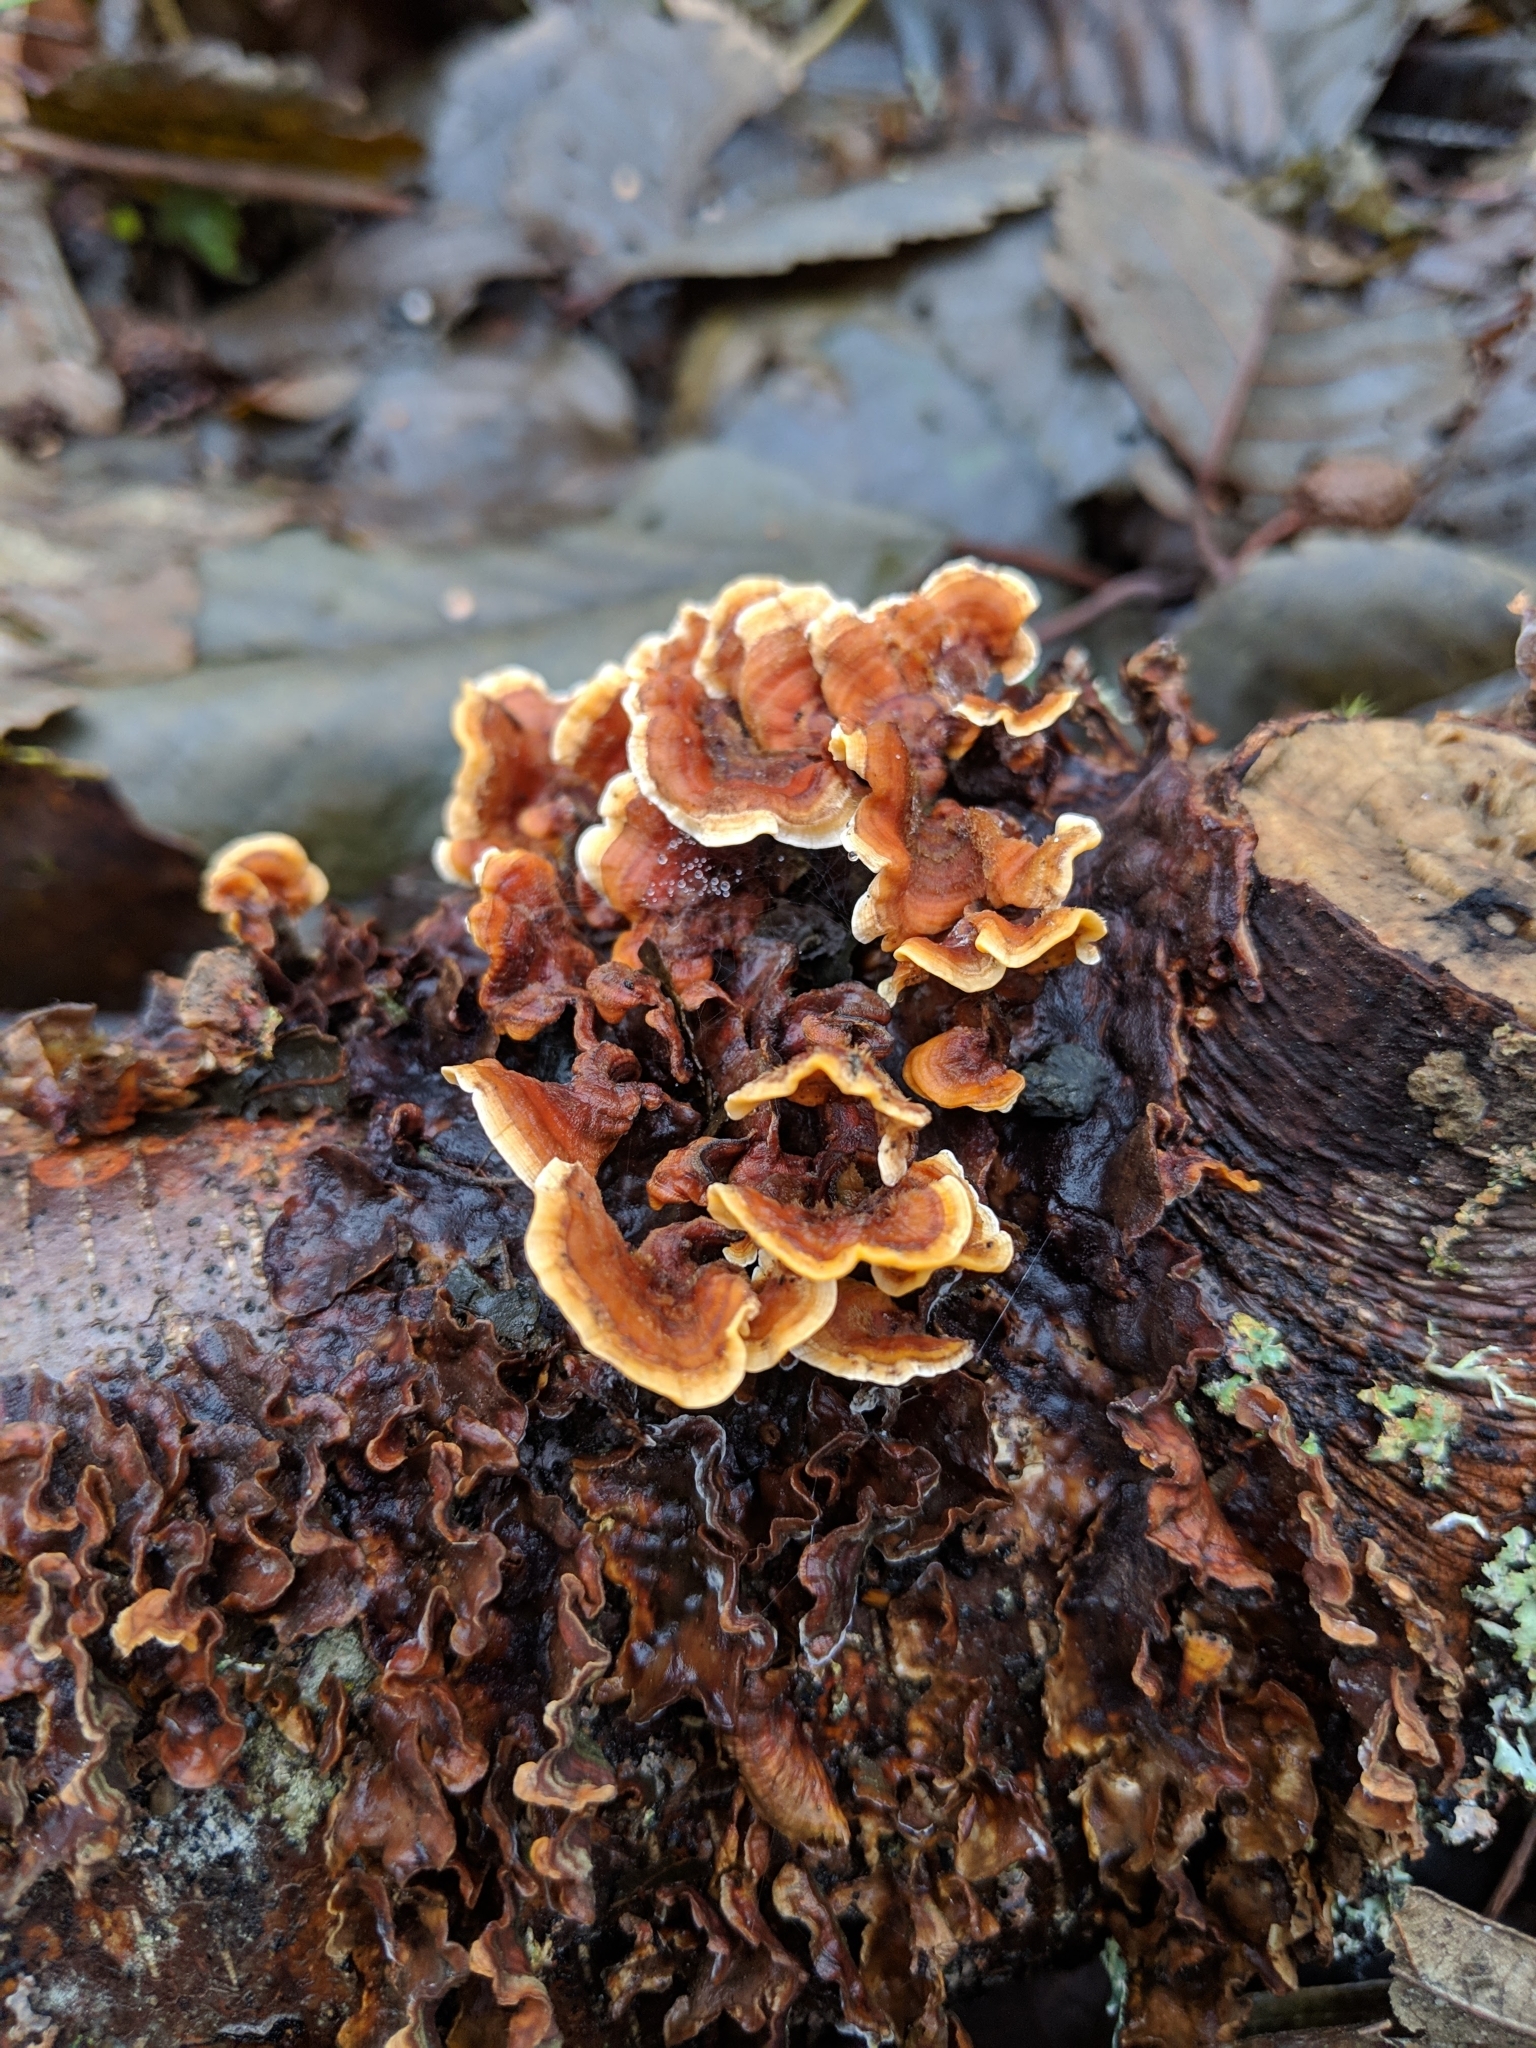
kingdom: Fungi
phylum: Basidiomycota
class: Agaricomycetes
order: Russulales
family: Stereaceae
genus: Stereum
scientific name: Stereum hirsutum
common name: Hairy curtain crust
